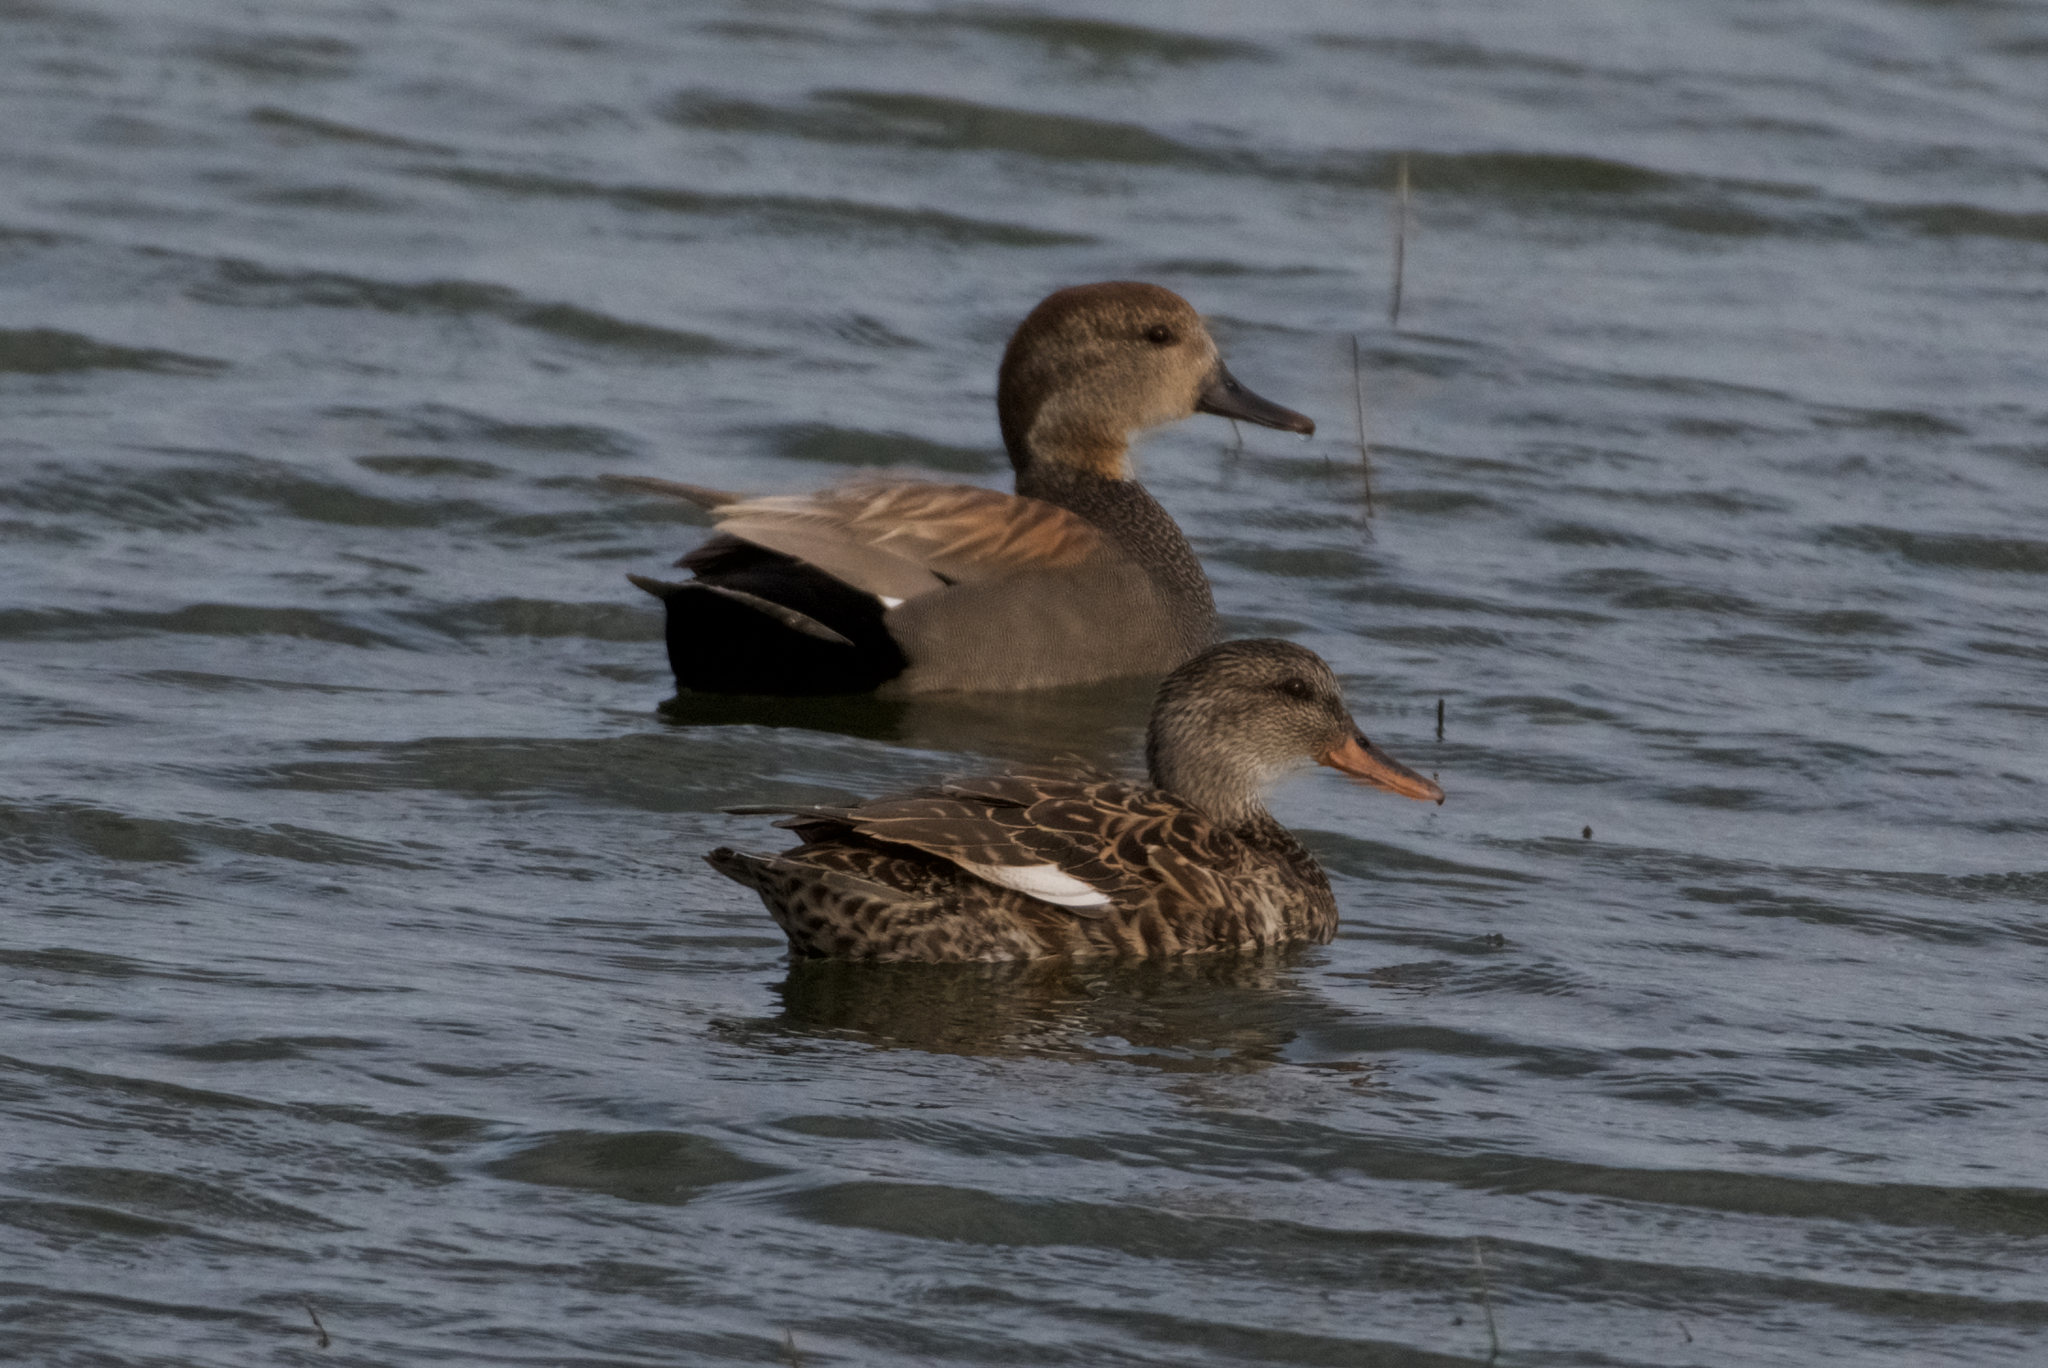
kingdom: Animalia
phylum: Chordata
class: Aves
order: Anseriformes
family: Anatidae
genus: Mareca
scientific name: Mareca strepera
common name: Gadwall
